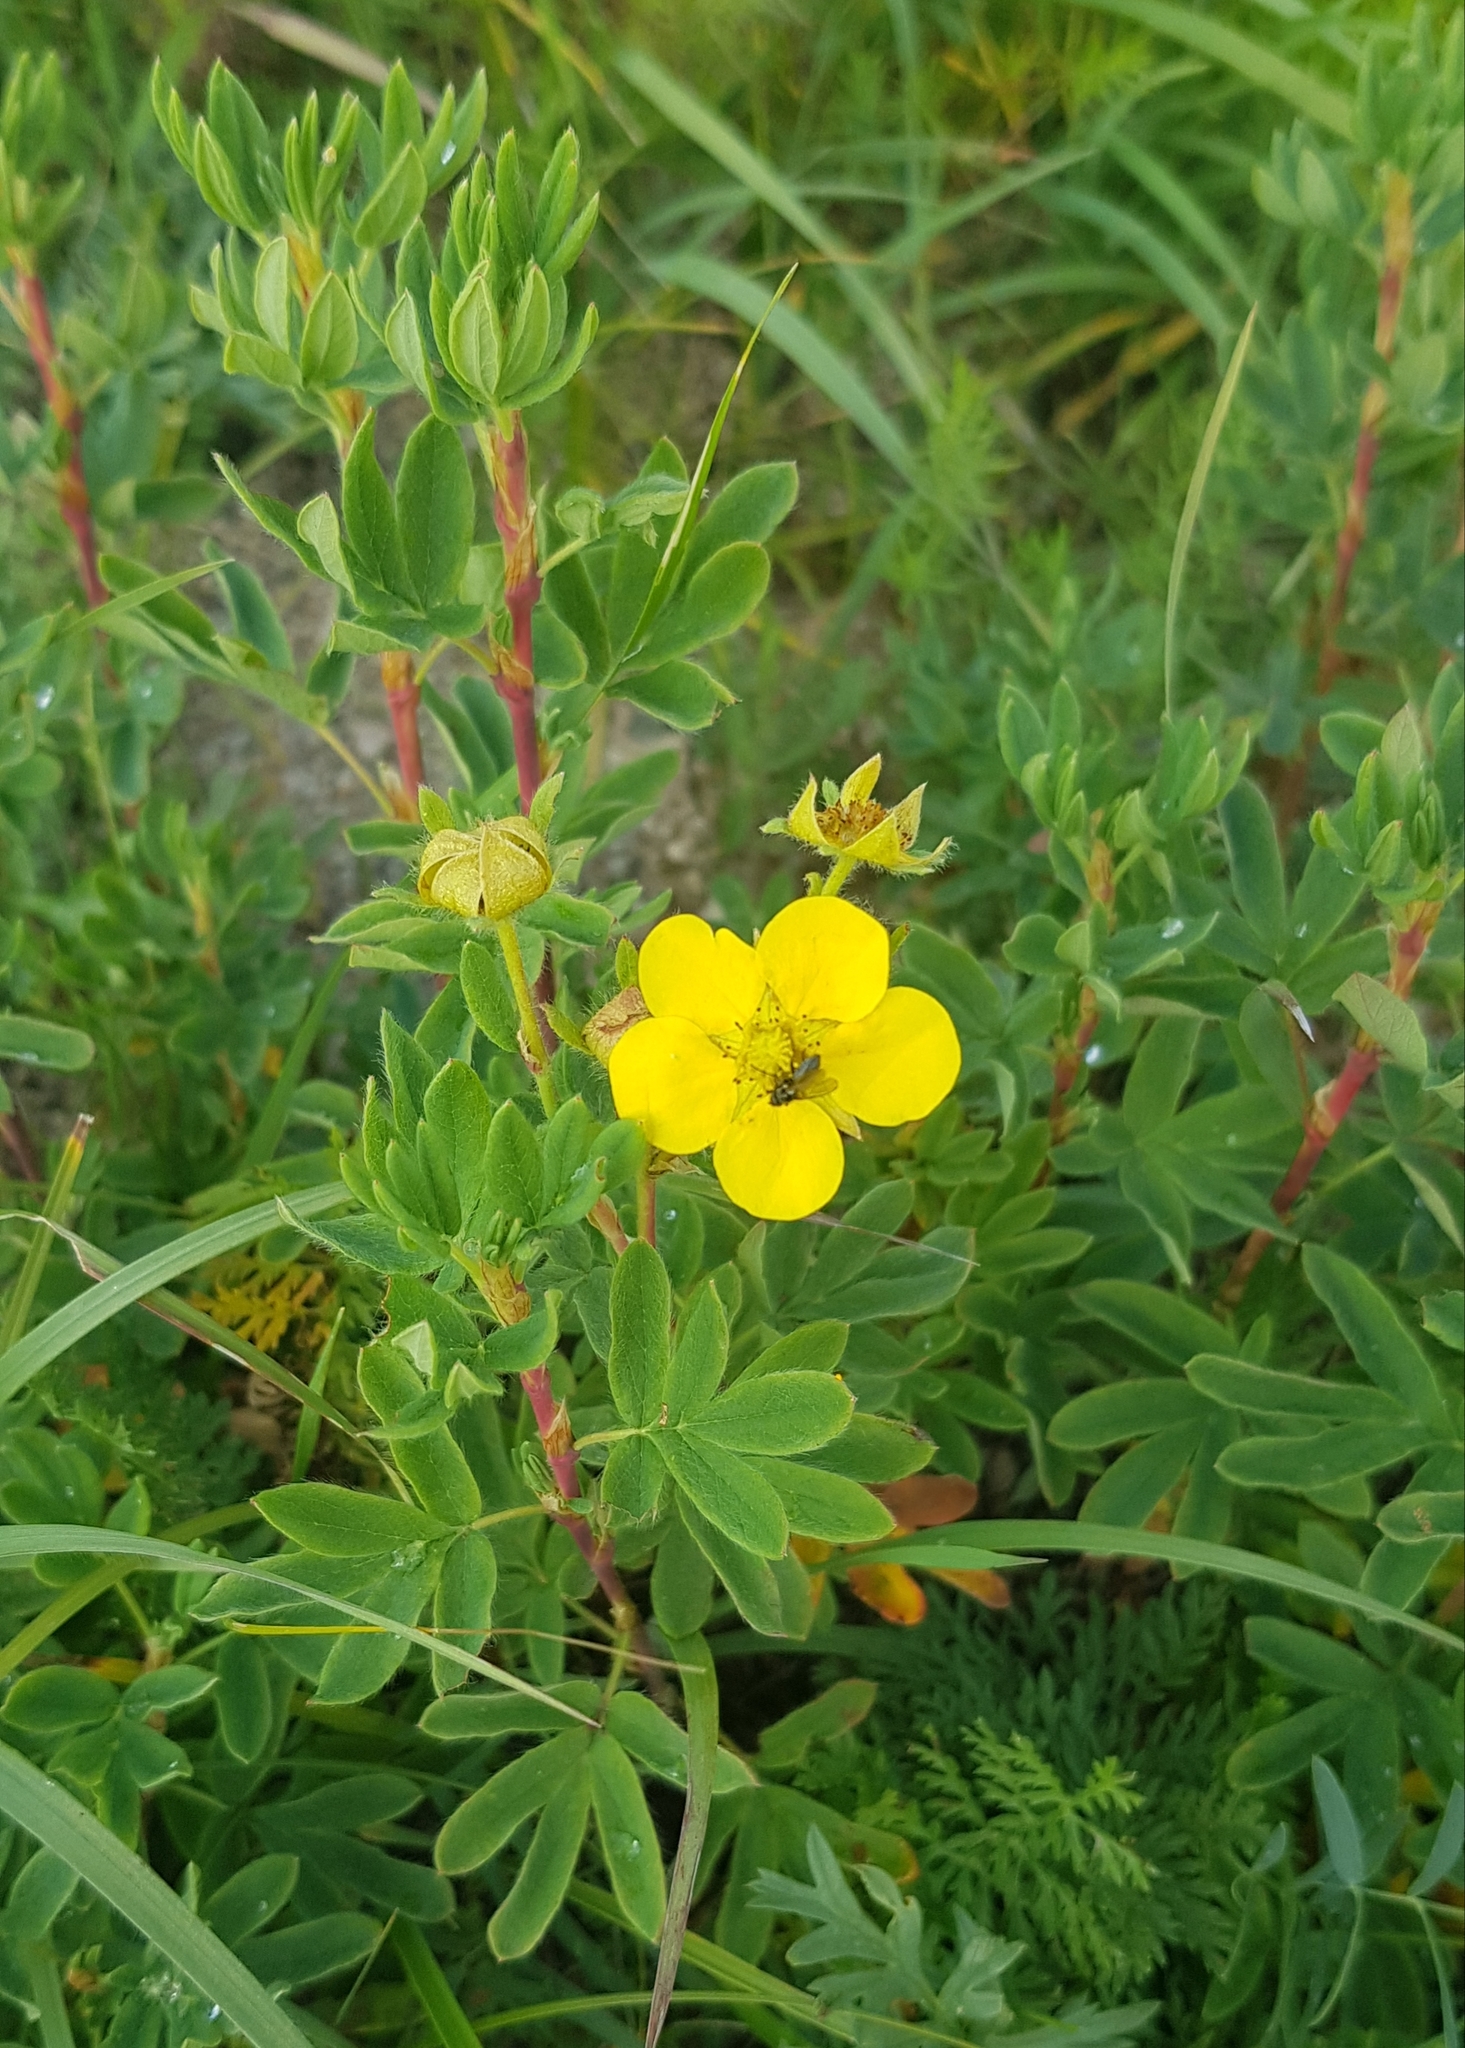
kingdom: Plantae
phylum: Tracheophyta
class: Magnoliopsida
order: Rosales
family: Rosaceae
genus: Dasiphora
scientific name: Dasiphora fruticosa
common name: Shrubby cinquefoil
